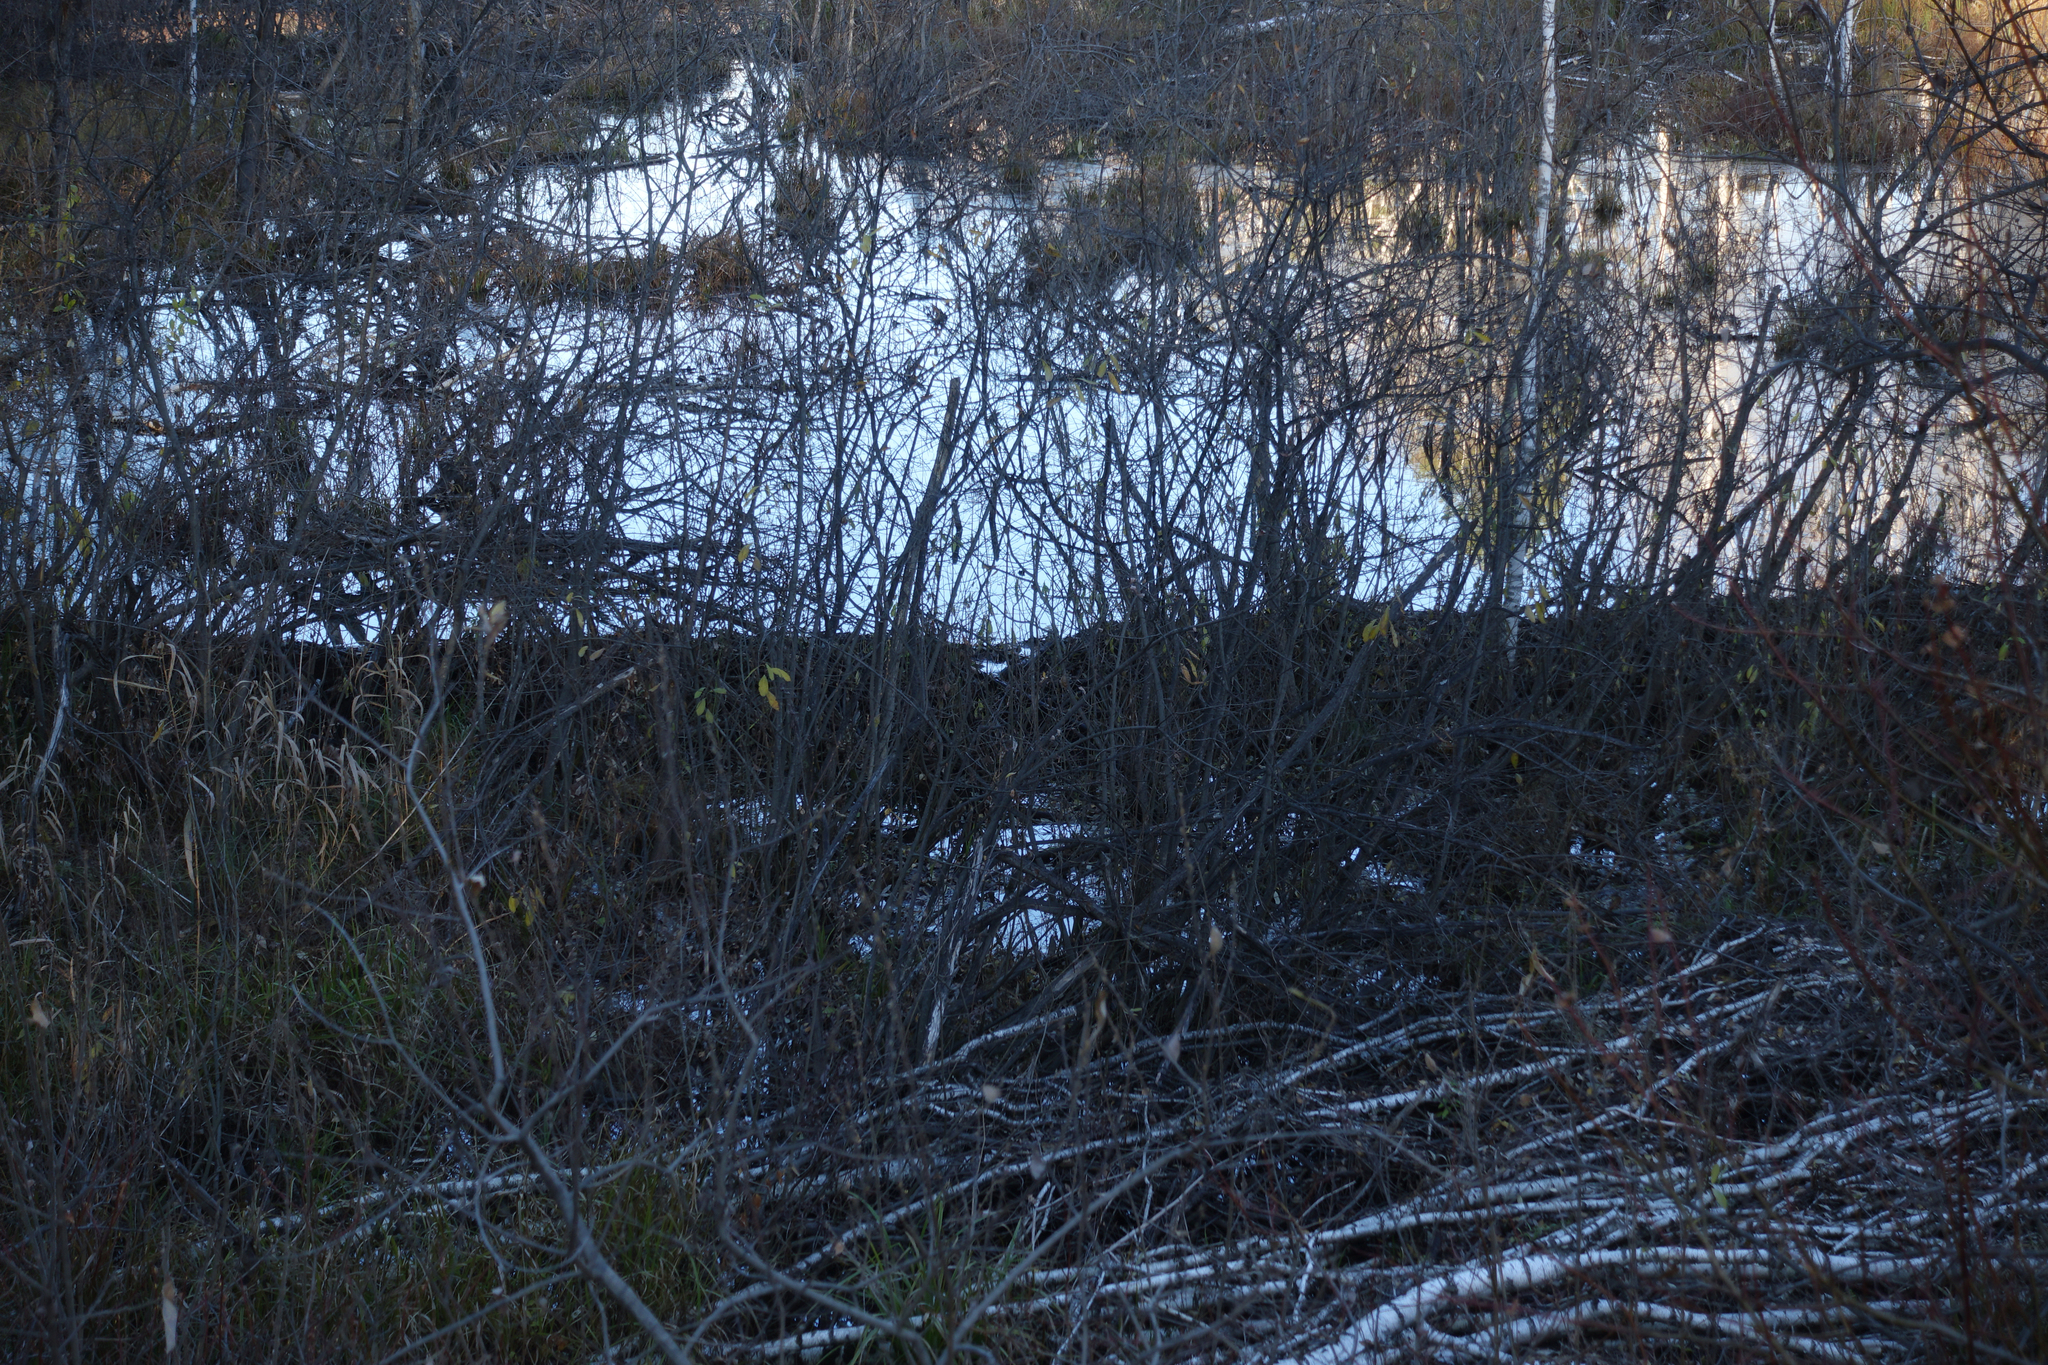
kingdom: Animalia
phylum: Chordata
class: Mammalia
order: Rodentia
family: Castoridae
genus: Castor
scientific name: Castor fiber
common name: Eurasian beaver
